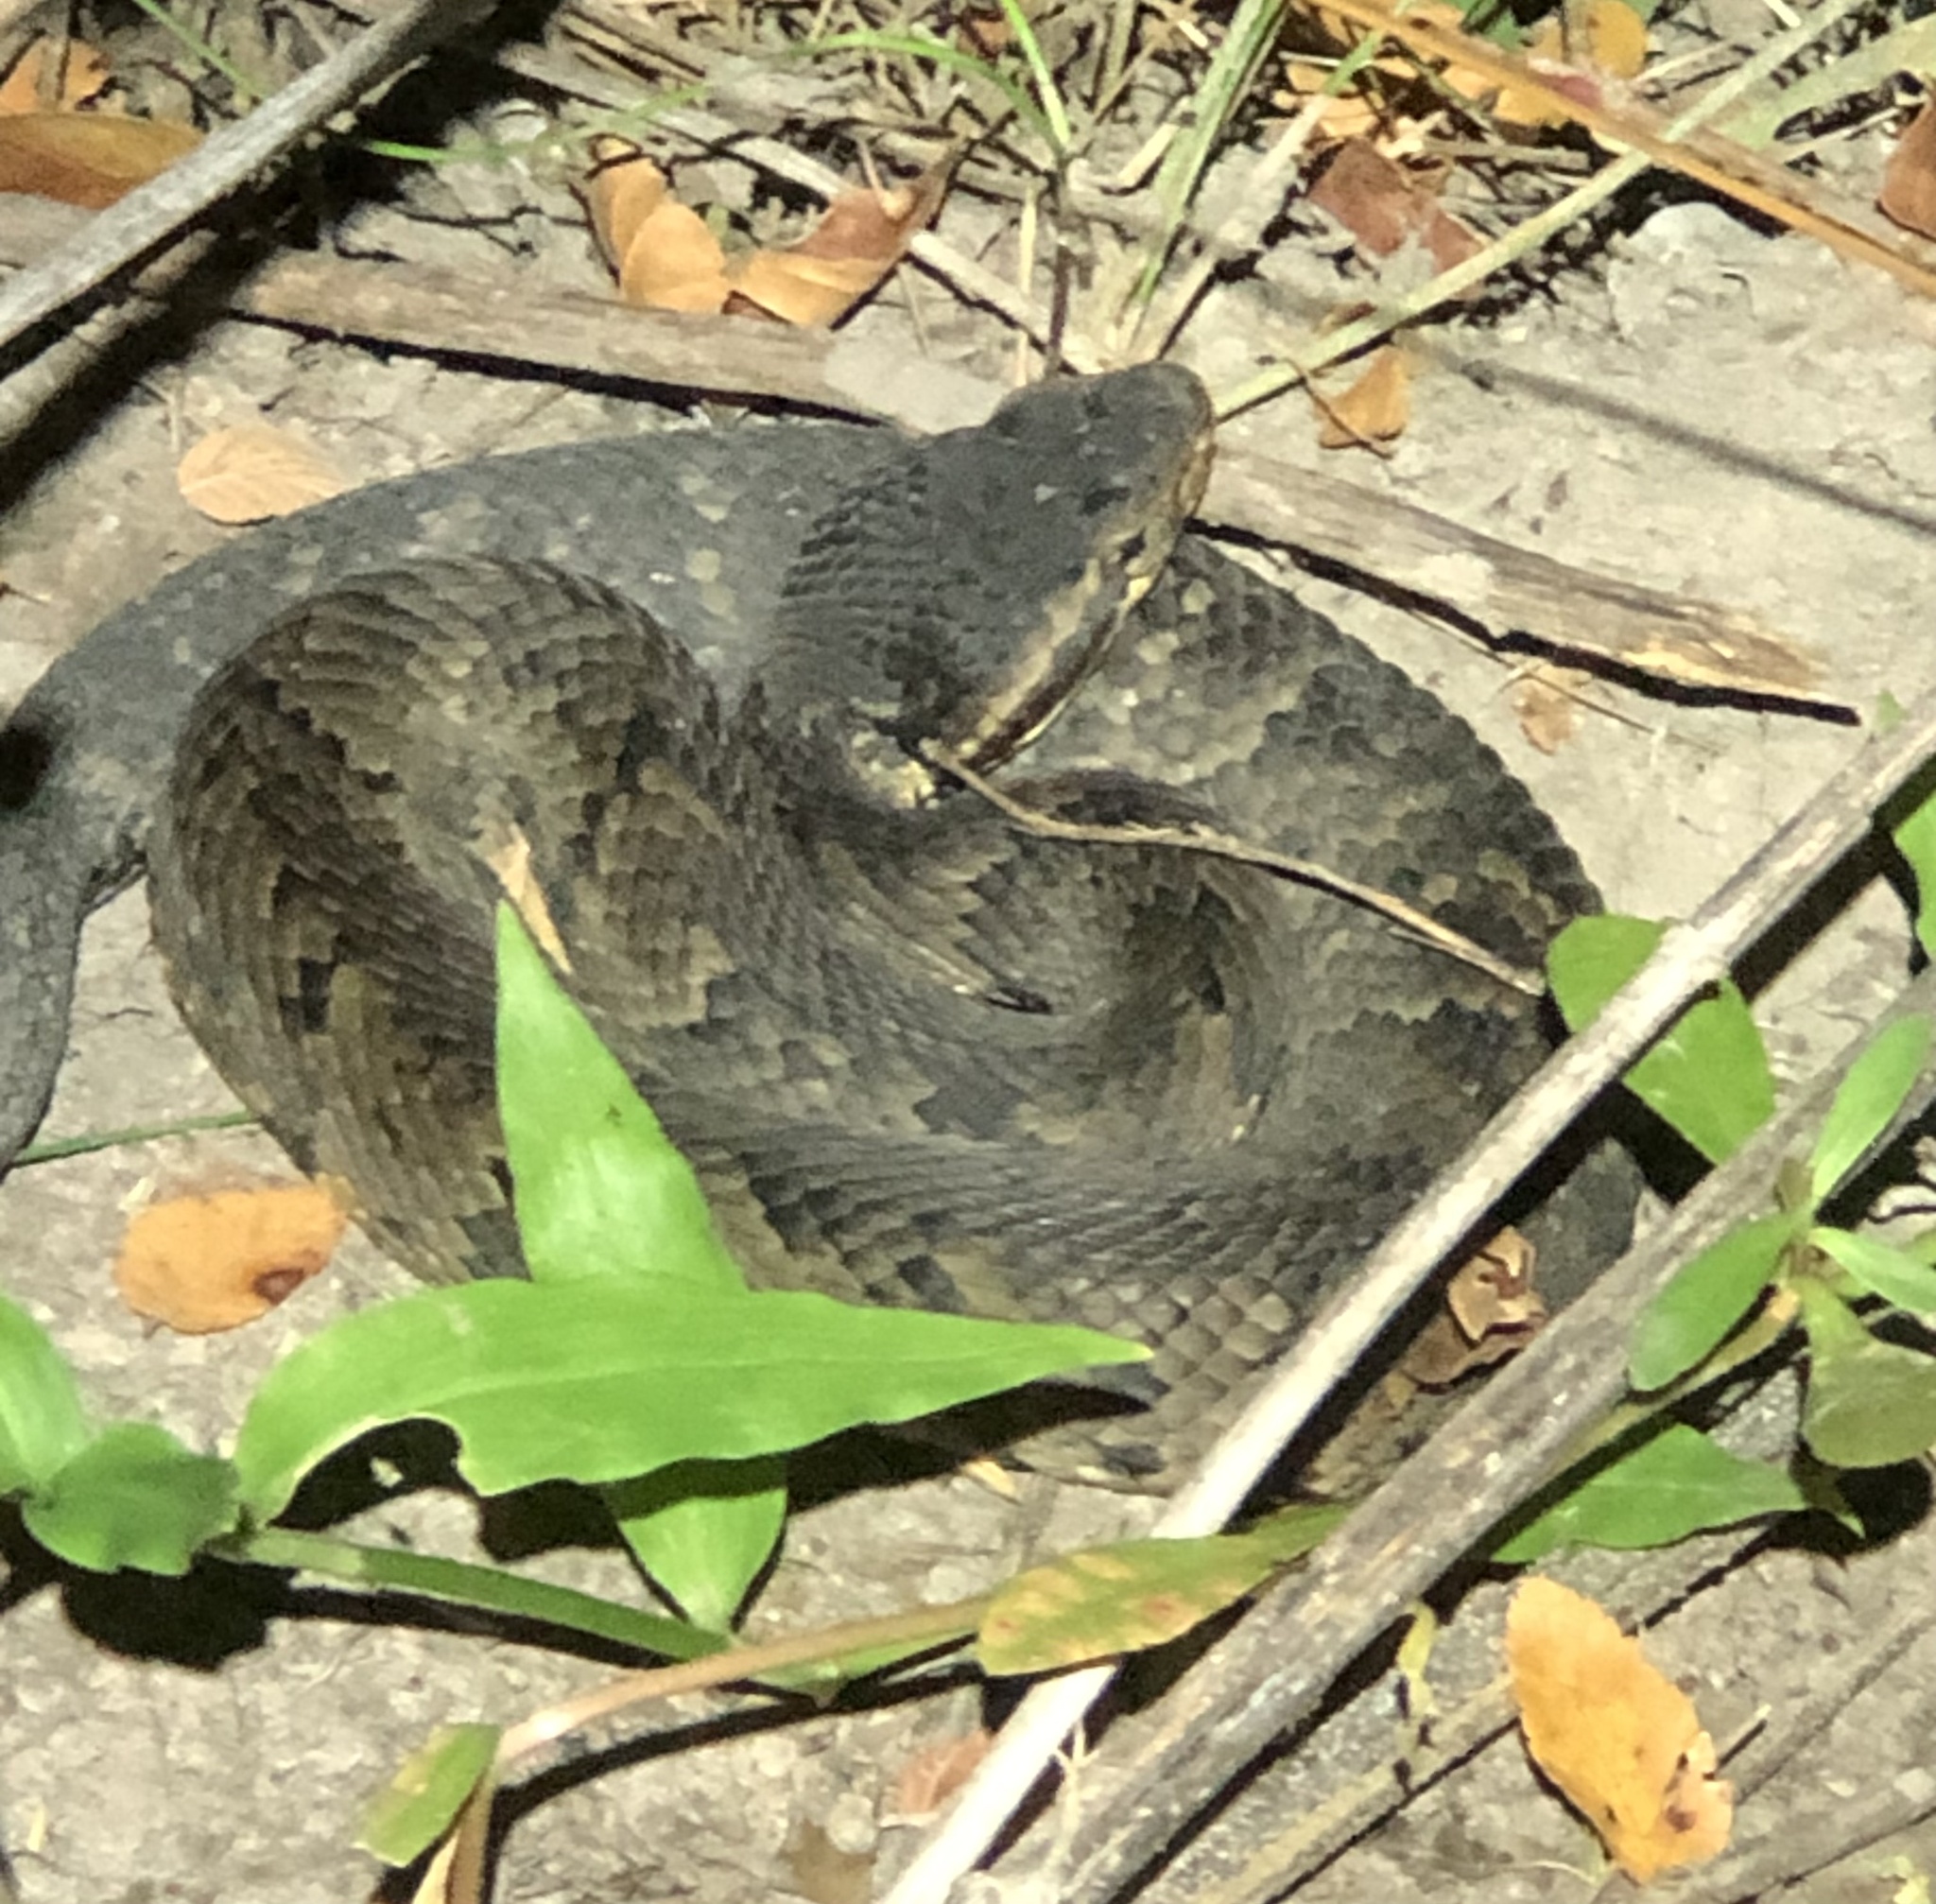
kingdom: Animalia
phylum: Chordata
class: Squamata
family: Viperidae
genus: Agkistrodon
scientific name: Agkistrodon piscivorus
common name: Cottonmouth
